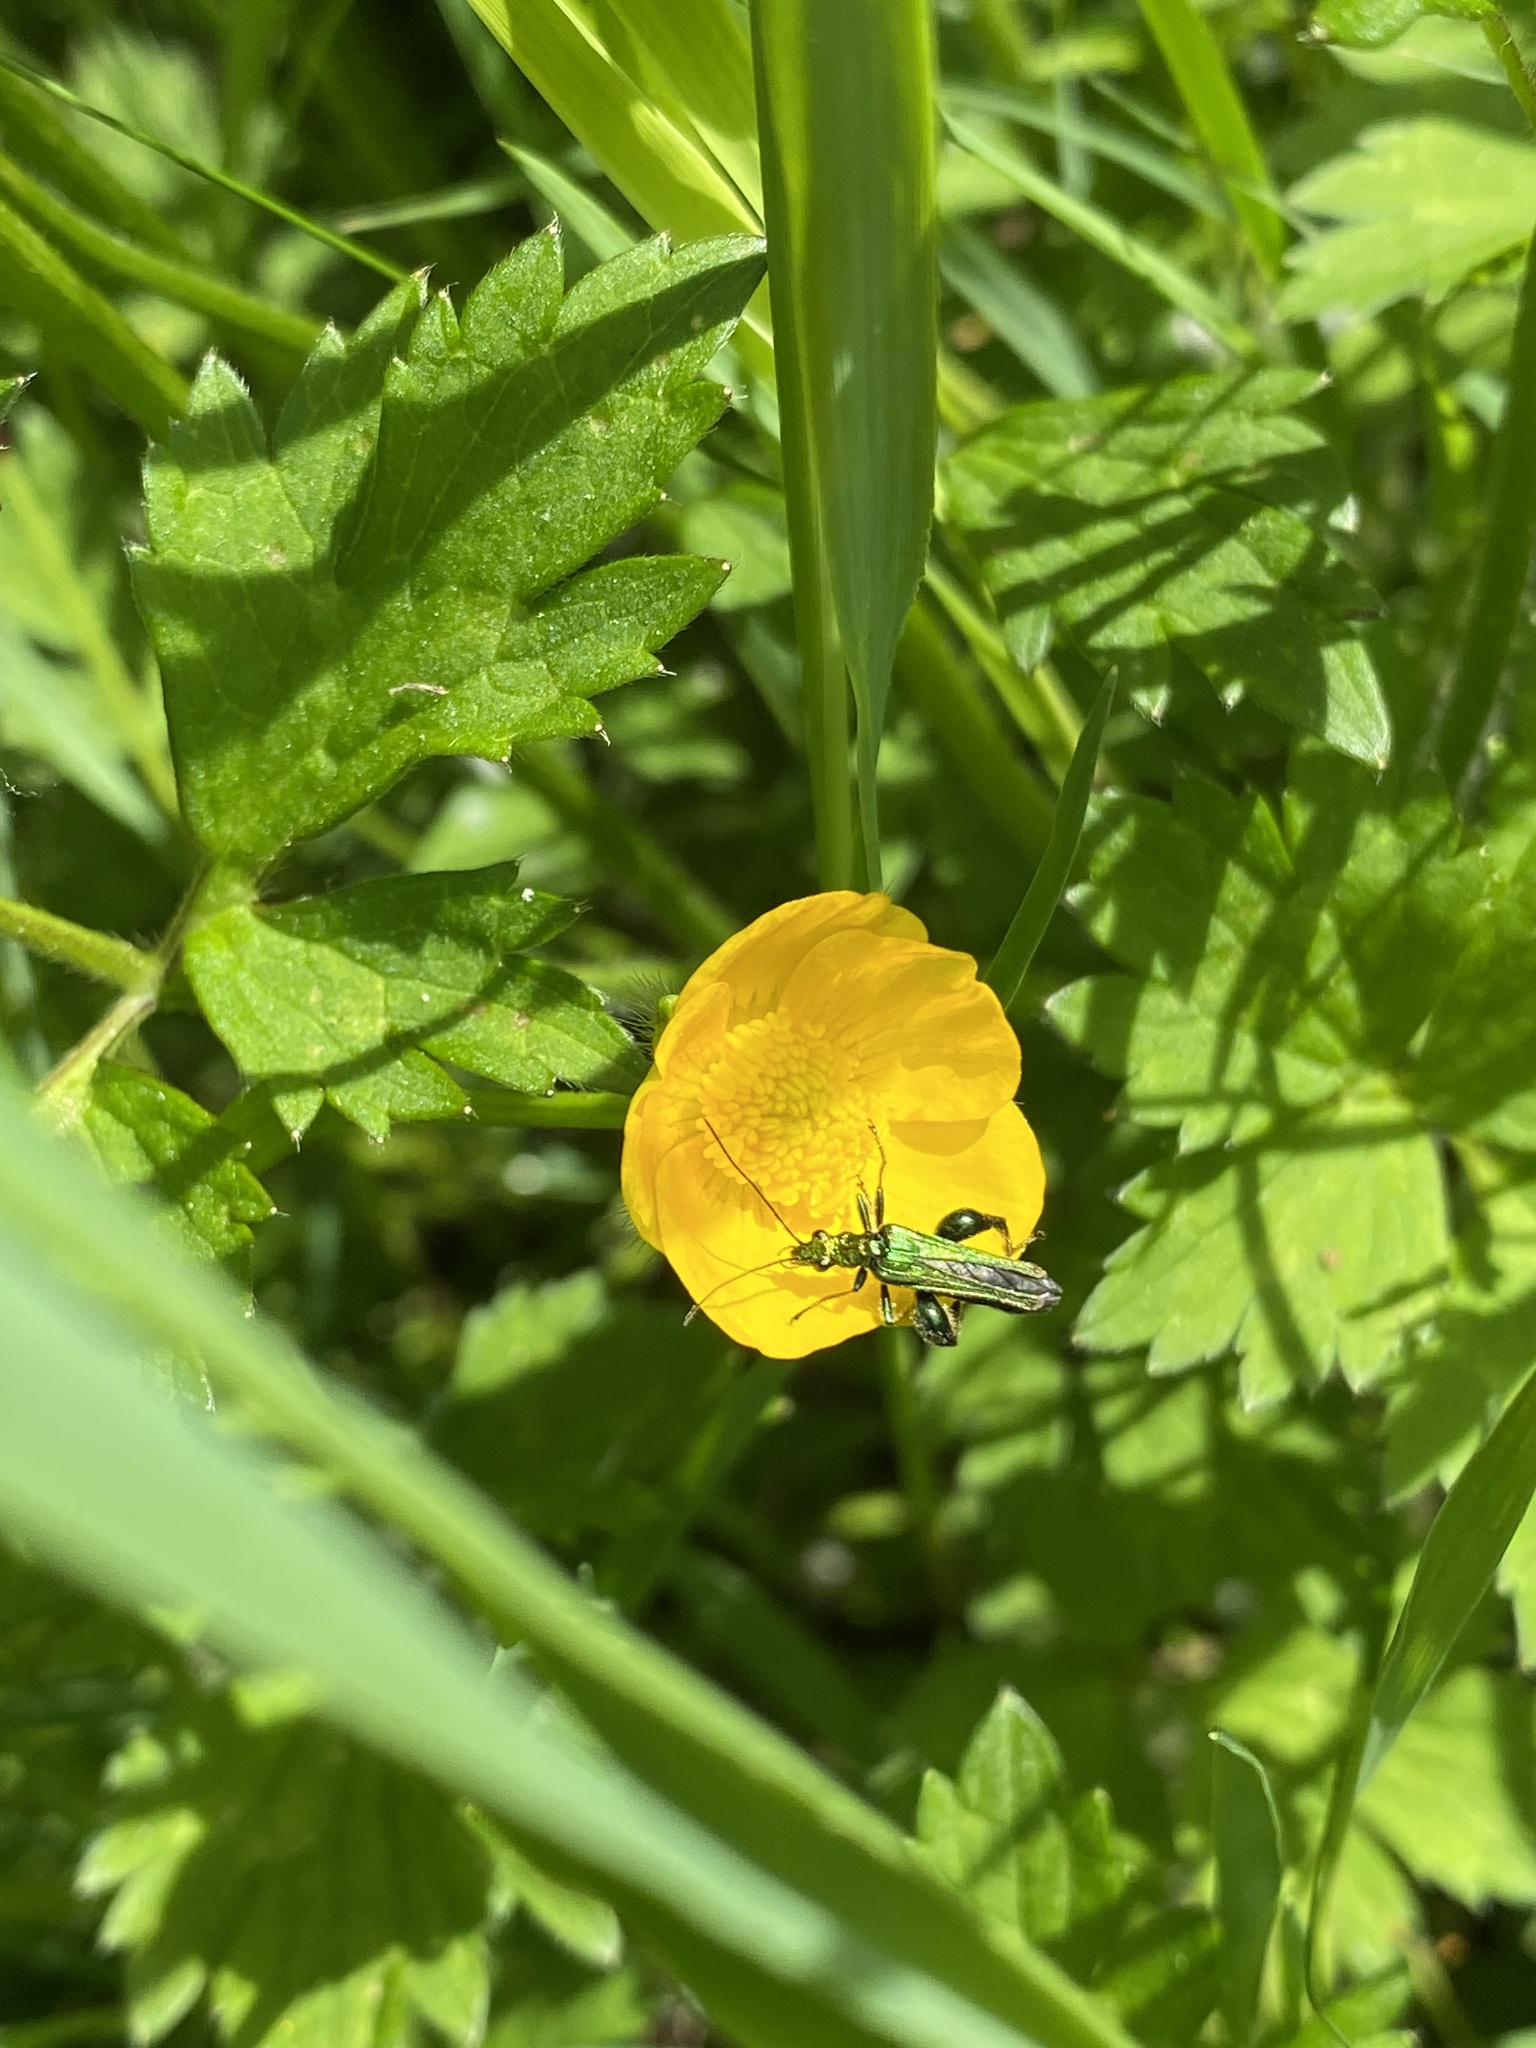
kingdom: Animalia
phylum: Arthropoda
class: Insecta
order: Coleoptera
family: Oedemeridae
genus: Oedemera
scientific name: Oedemera nobilis
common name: Swollen-thighed beetle
